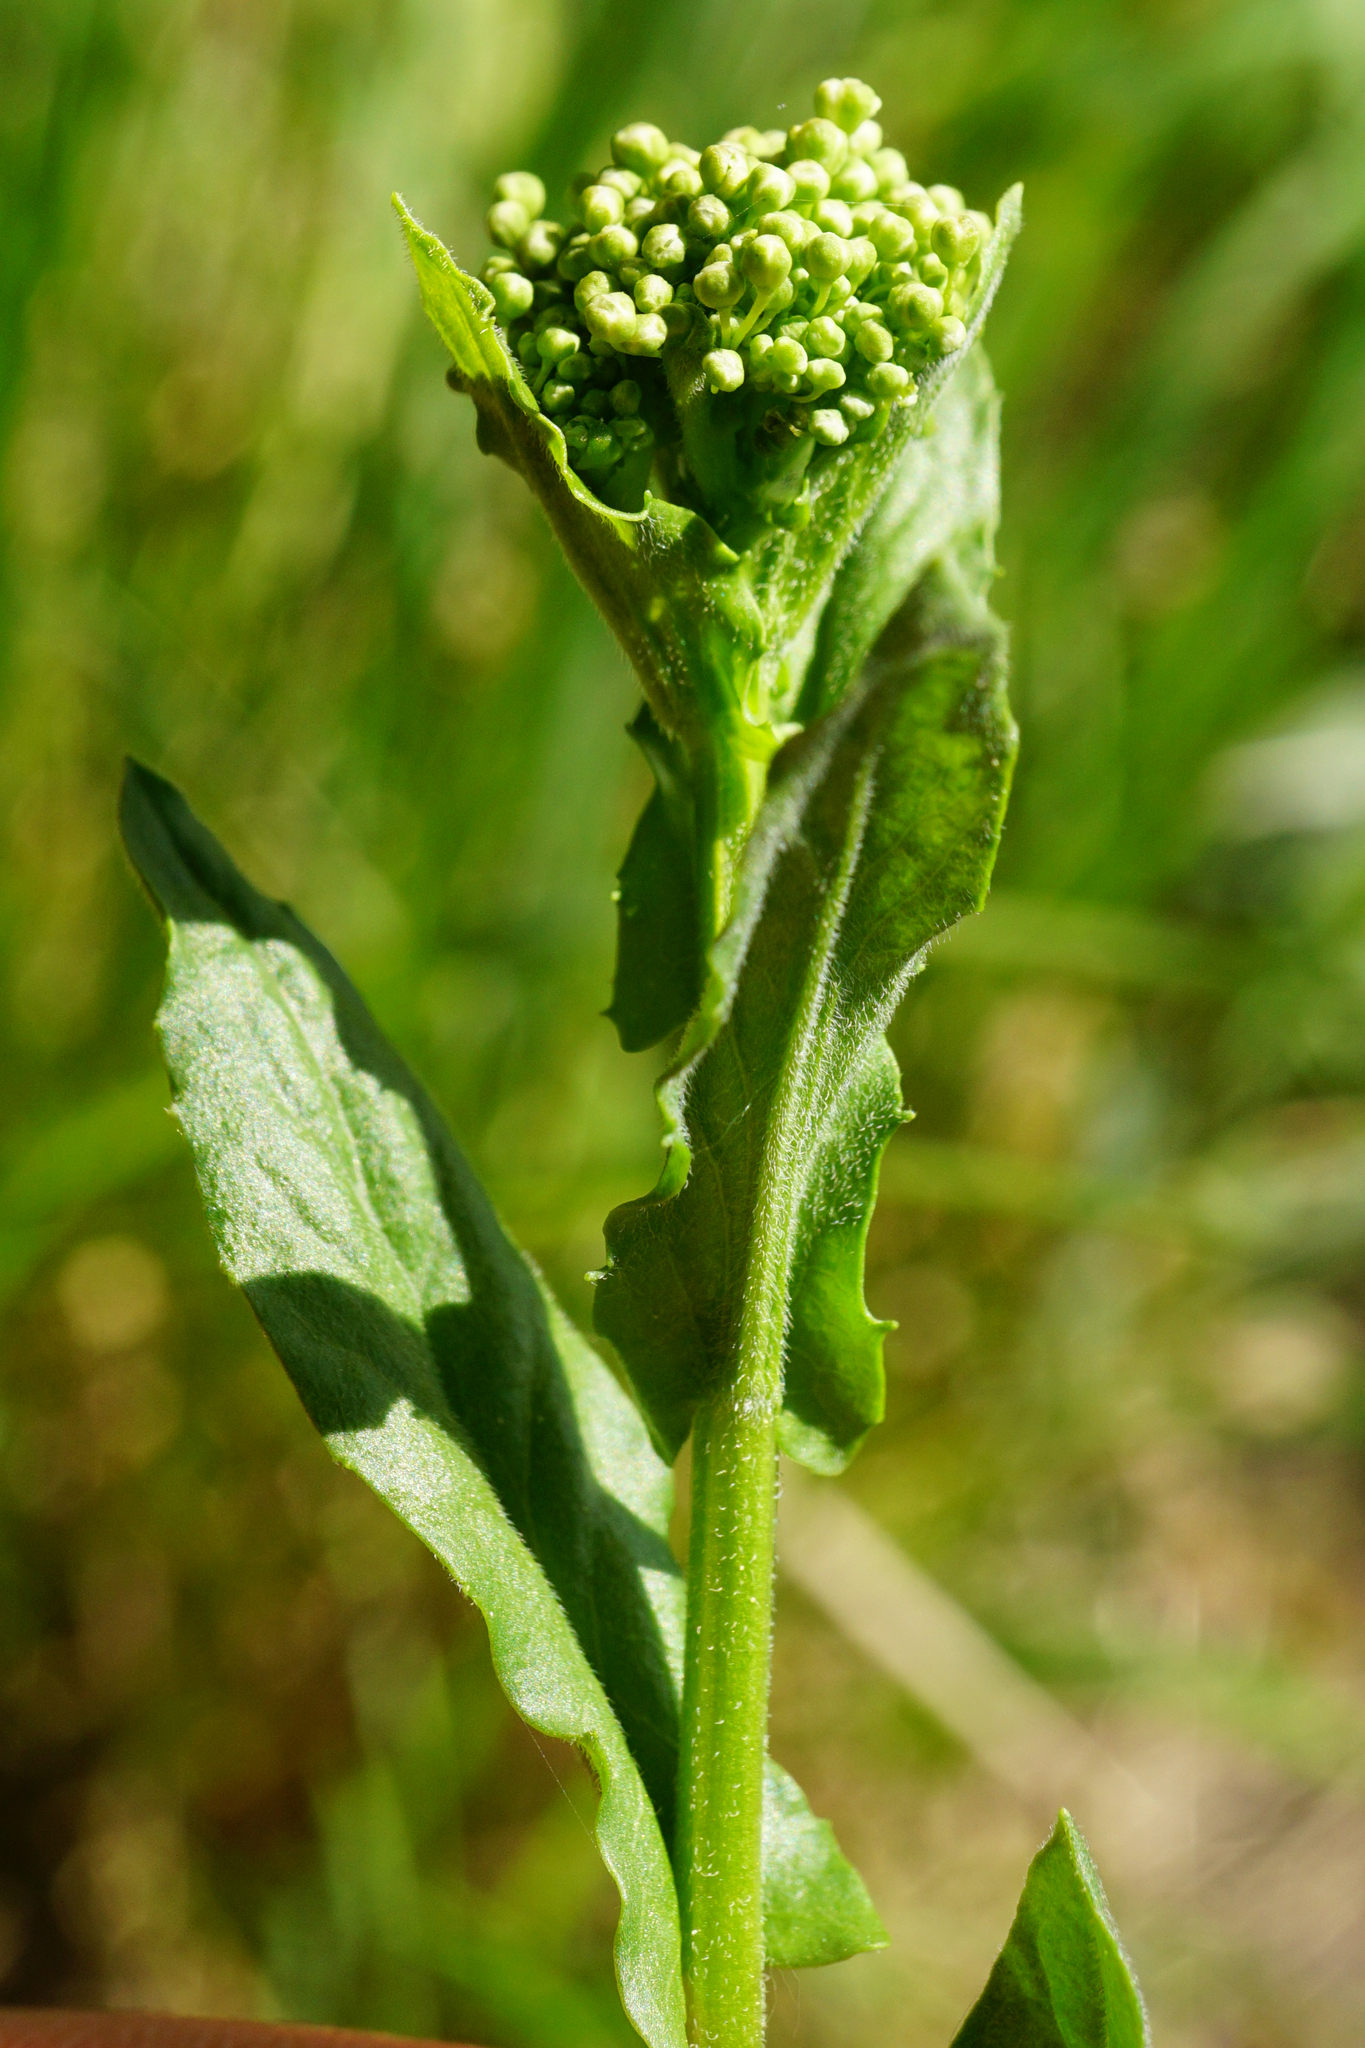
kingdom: Plantae
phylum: Tracheophyta
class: Magnoliopsida
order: Brassicales
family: Brassicaceae
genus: Lepidium
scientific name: Lepidium draba
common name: Hoary cress
